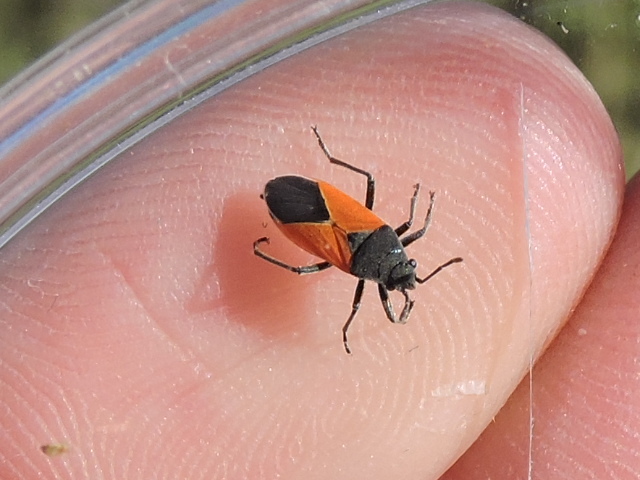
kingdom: Animalia
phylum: Arthropoda
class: Insecta
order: Hemiptera
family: Lygaeidae
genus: Melanopleurus
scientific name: Melanopleurus belfragei
